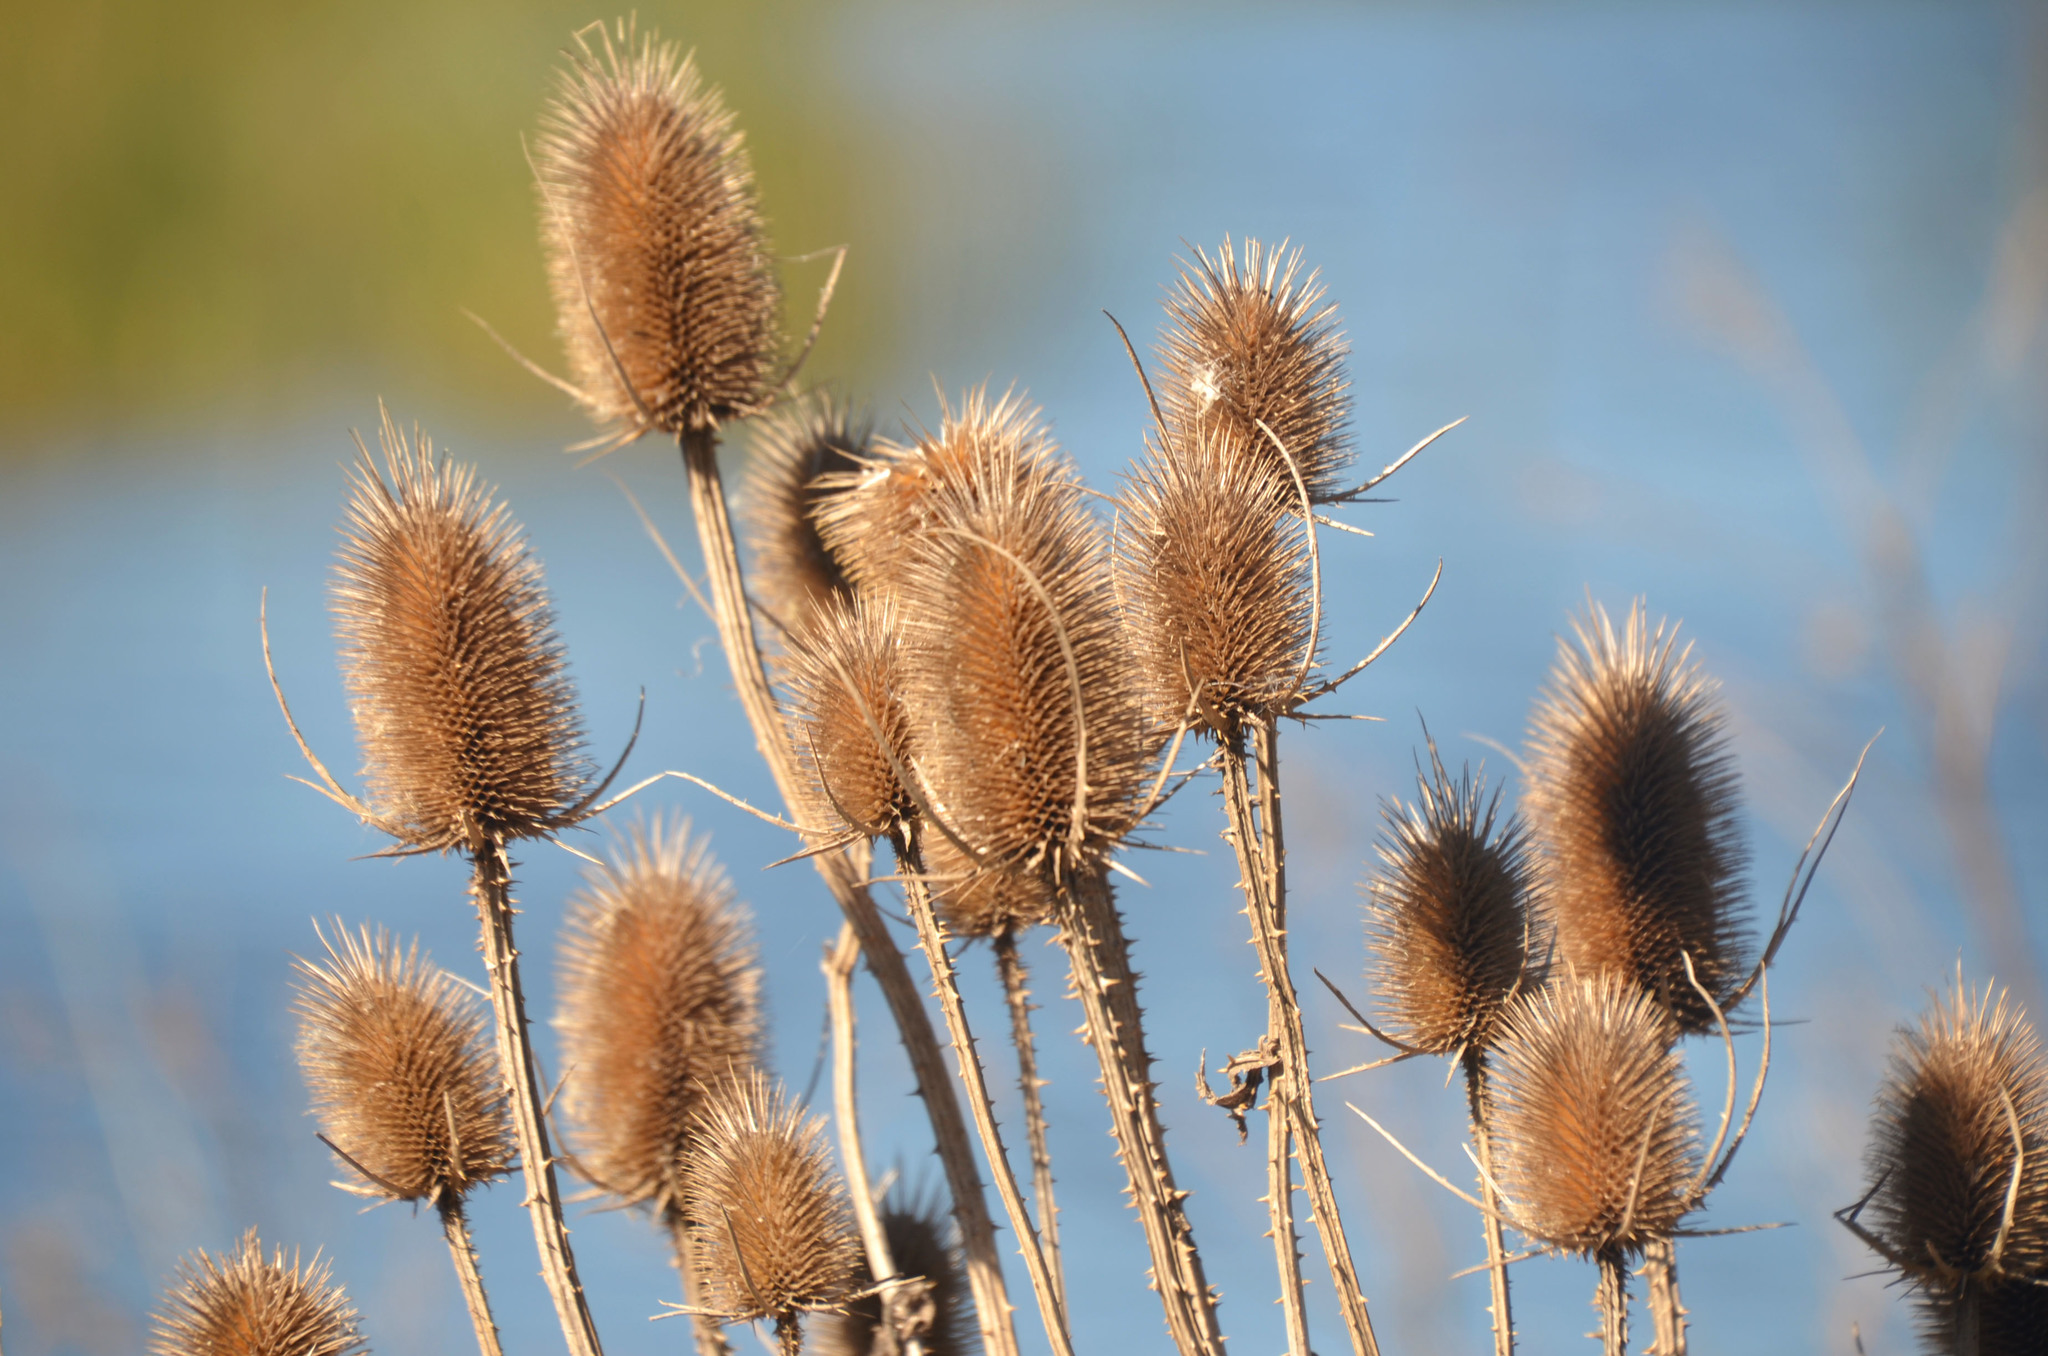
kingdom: Plantae
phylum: Tracheophyta
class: Magnoliopsida
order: Dipsacales
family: Caprifoliaceae
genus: Dipsacus
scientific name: Dipsacus fullonum
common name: Teasel
